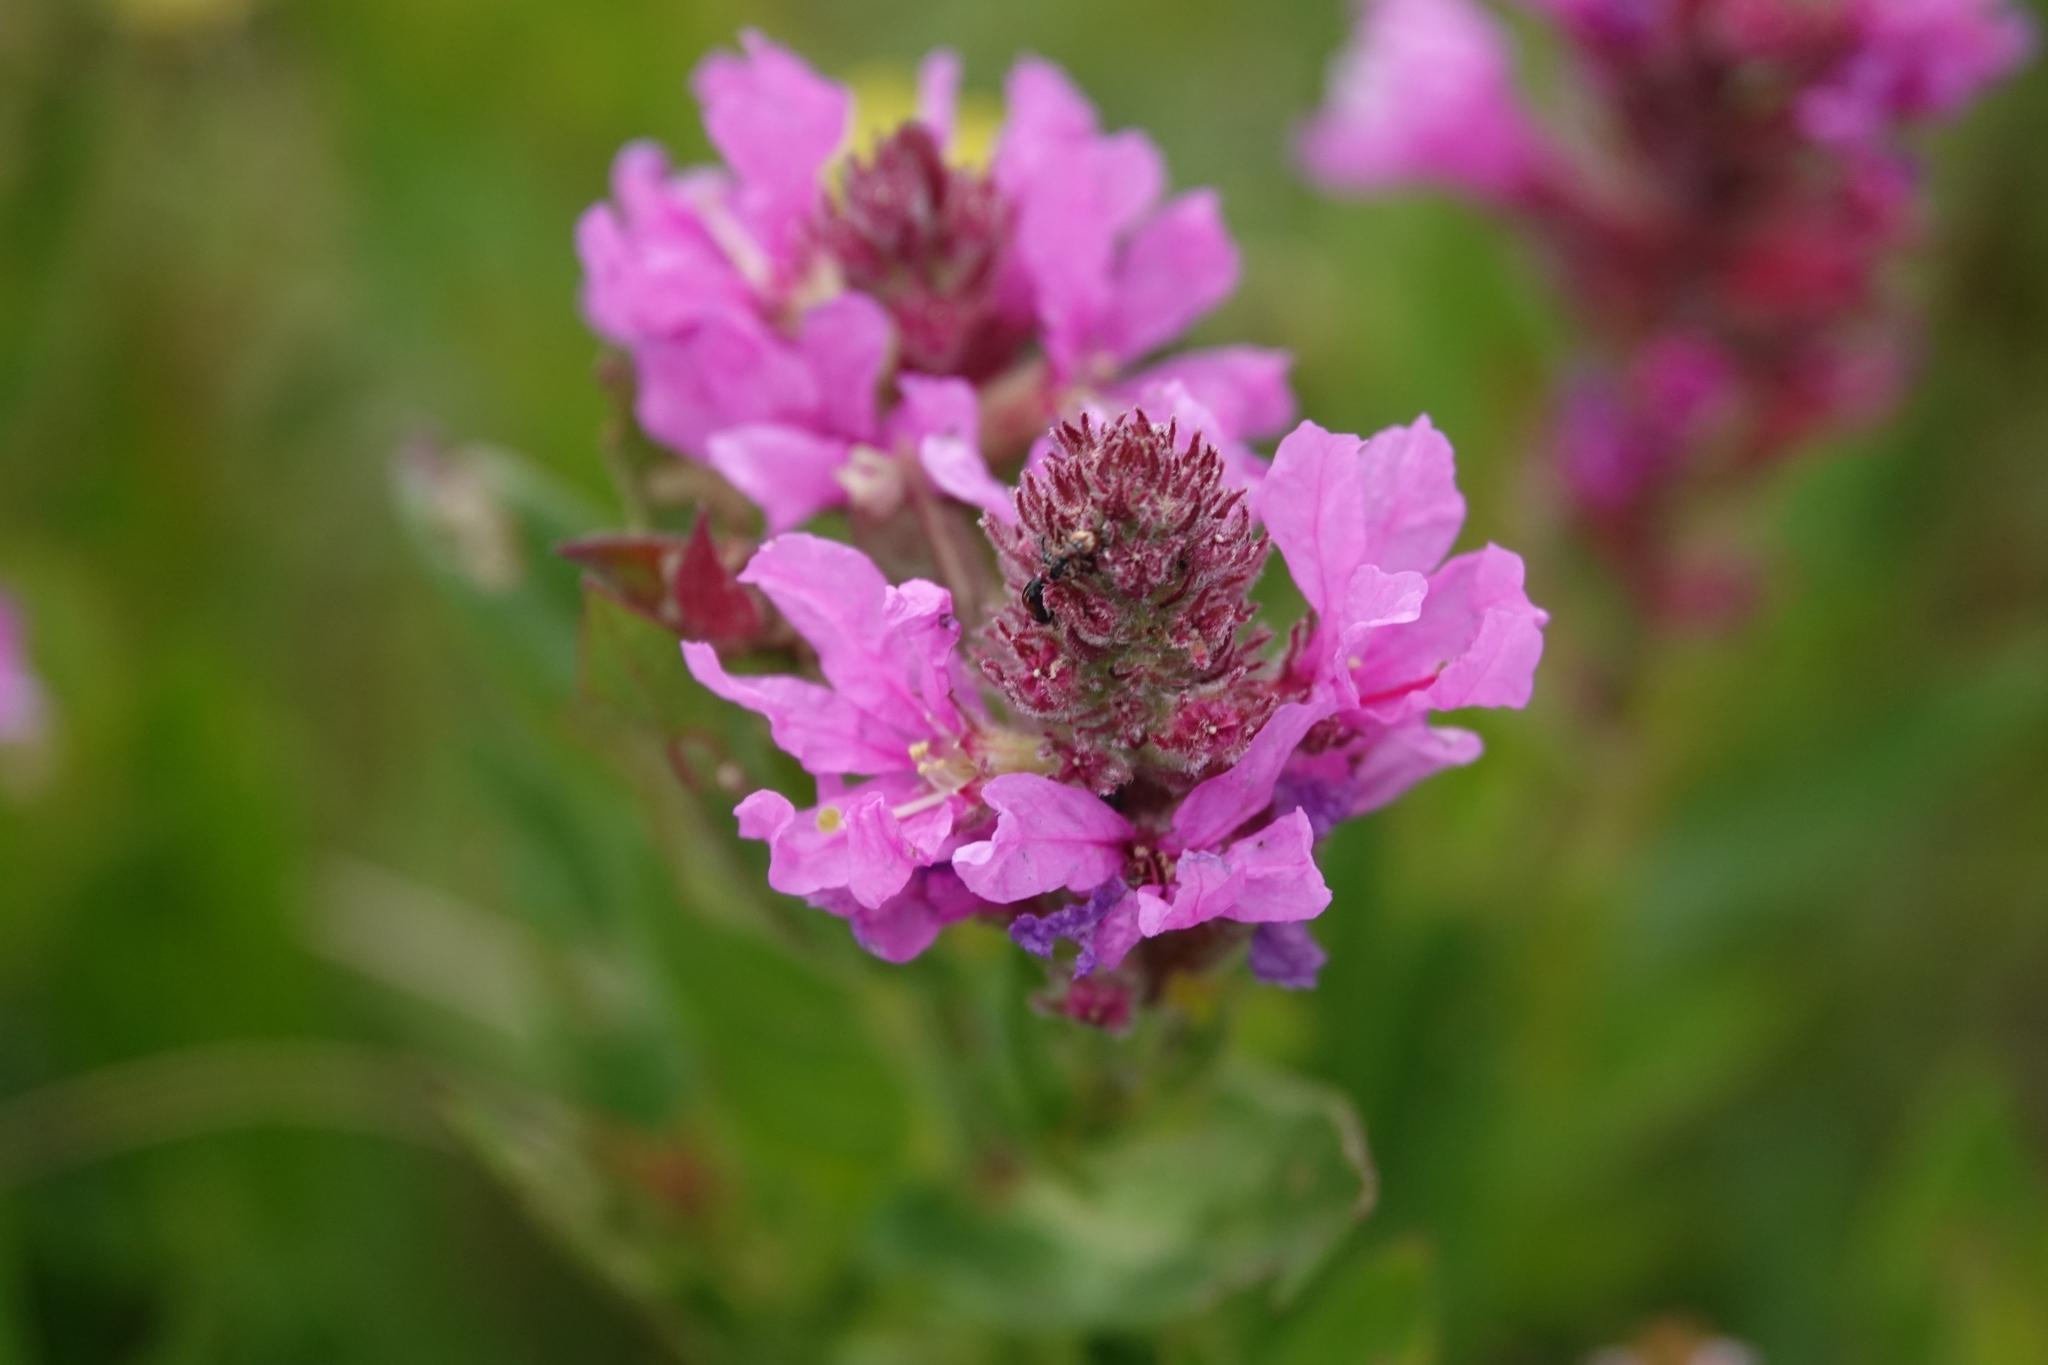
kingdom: Plantae
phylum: Tracheophyta
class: Magnoliopsida
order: Myrtales
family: Lythraceae
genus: Lythrum
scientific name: Lythrum salicaria
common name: Purple loosestrife
